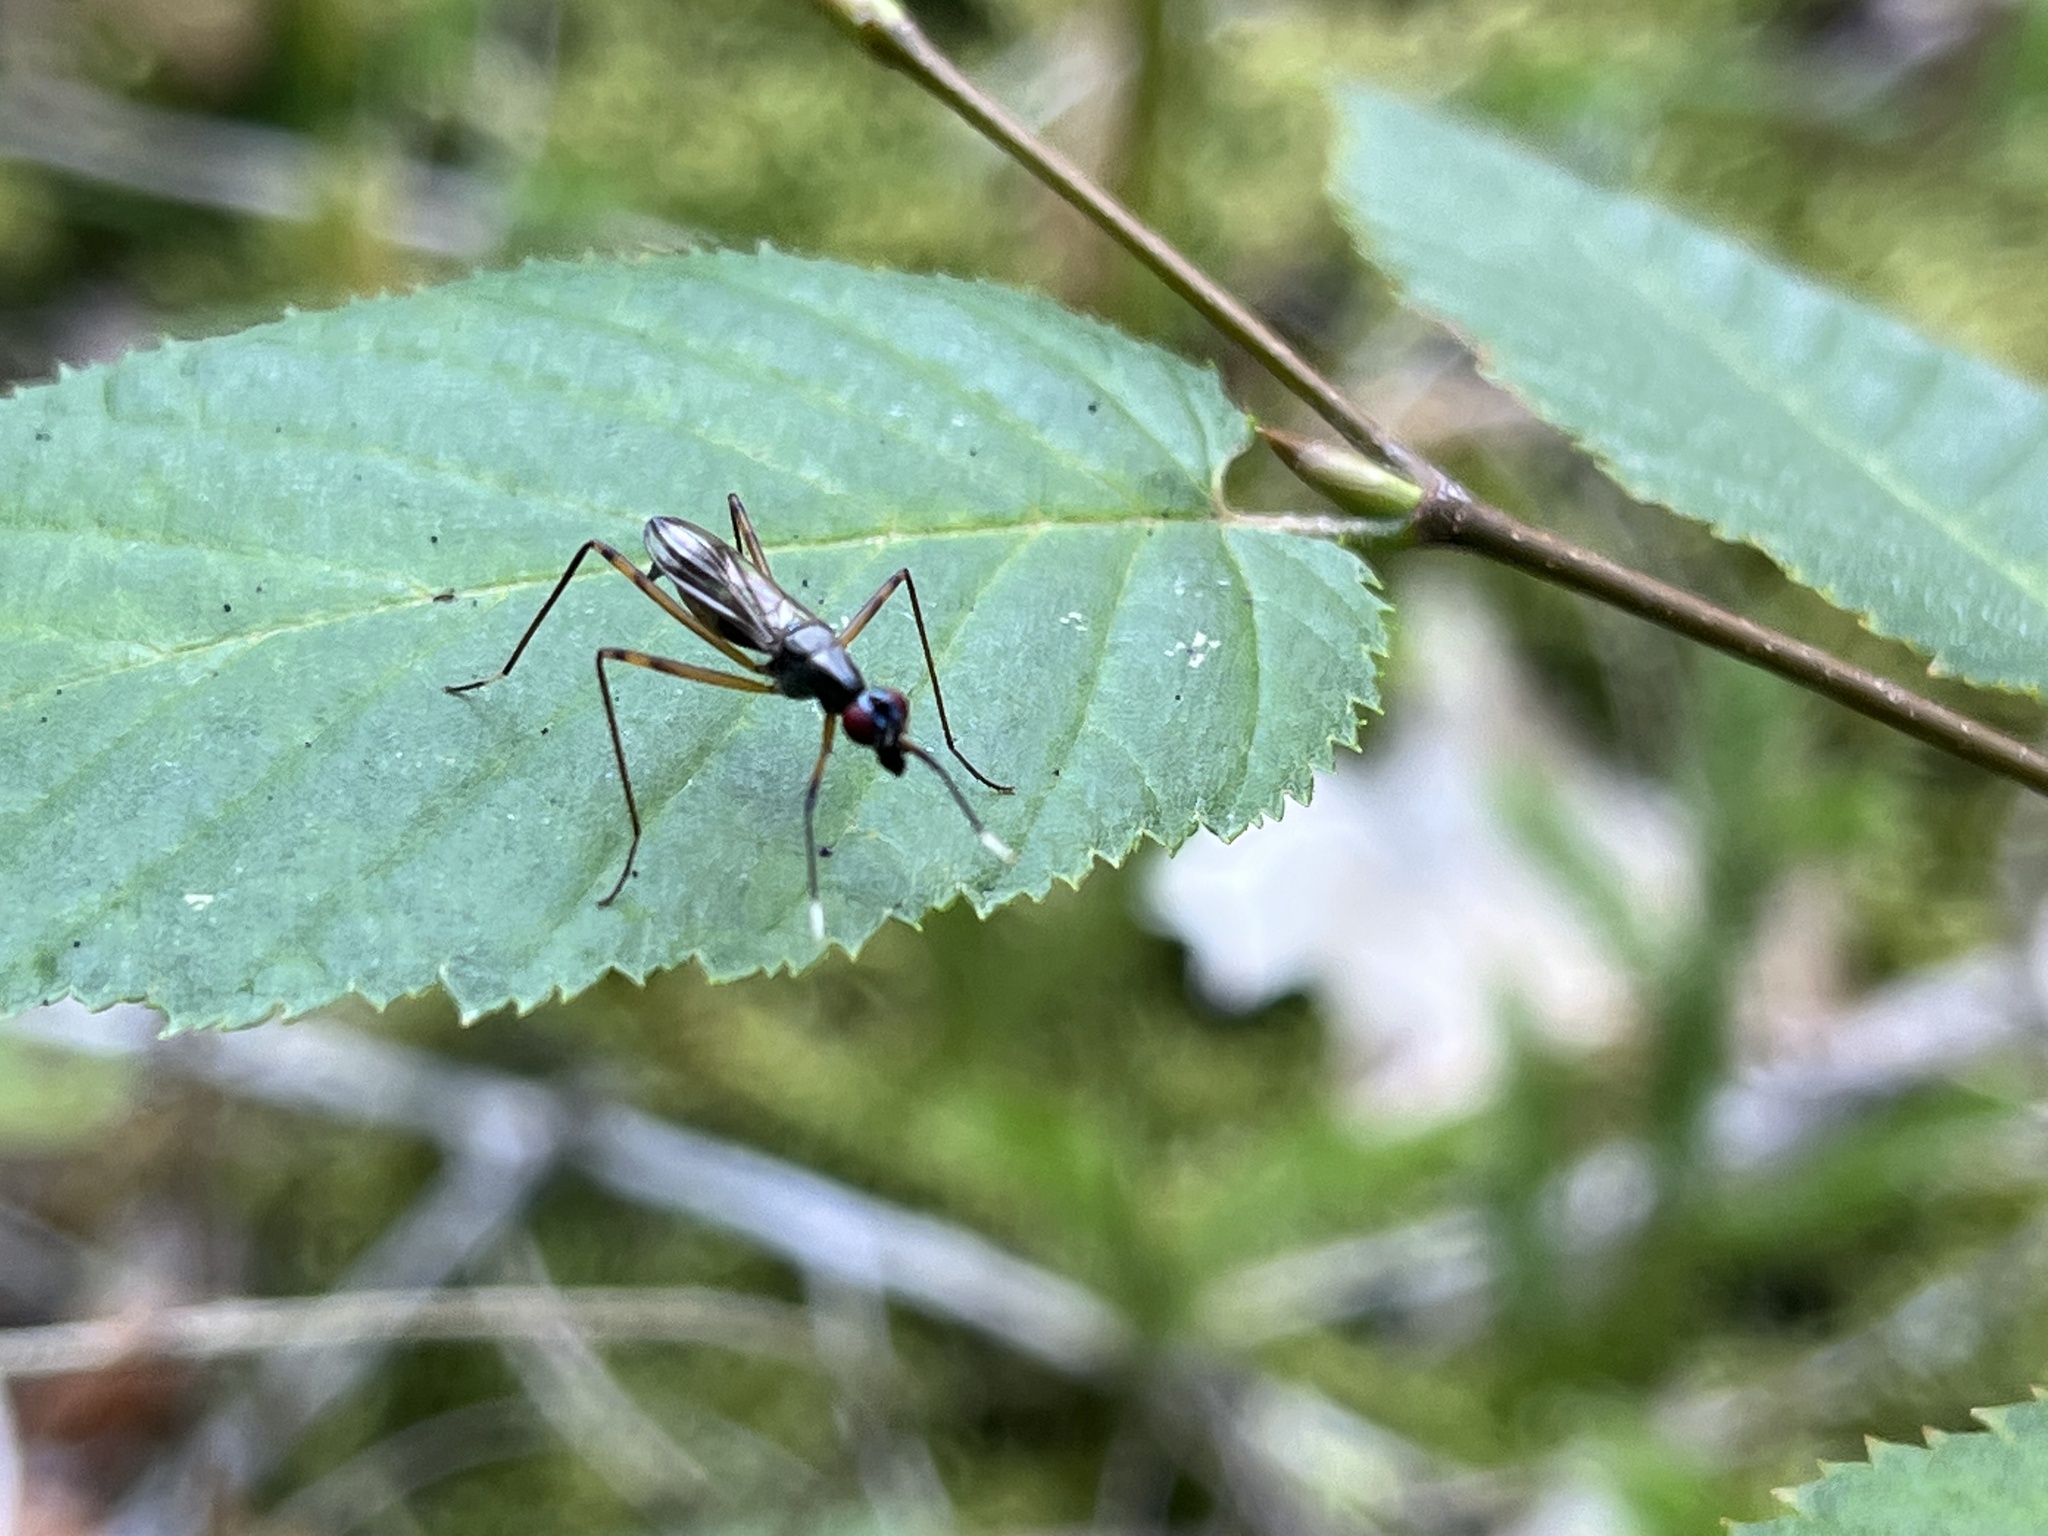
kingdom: Animalia
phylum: Arthropoda
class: Insecta
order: Diptera
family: Micropezidae
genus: Rainieria
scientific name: Rainieria antennaepes
